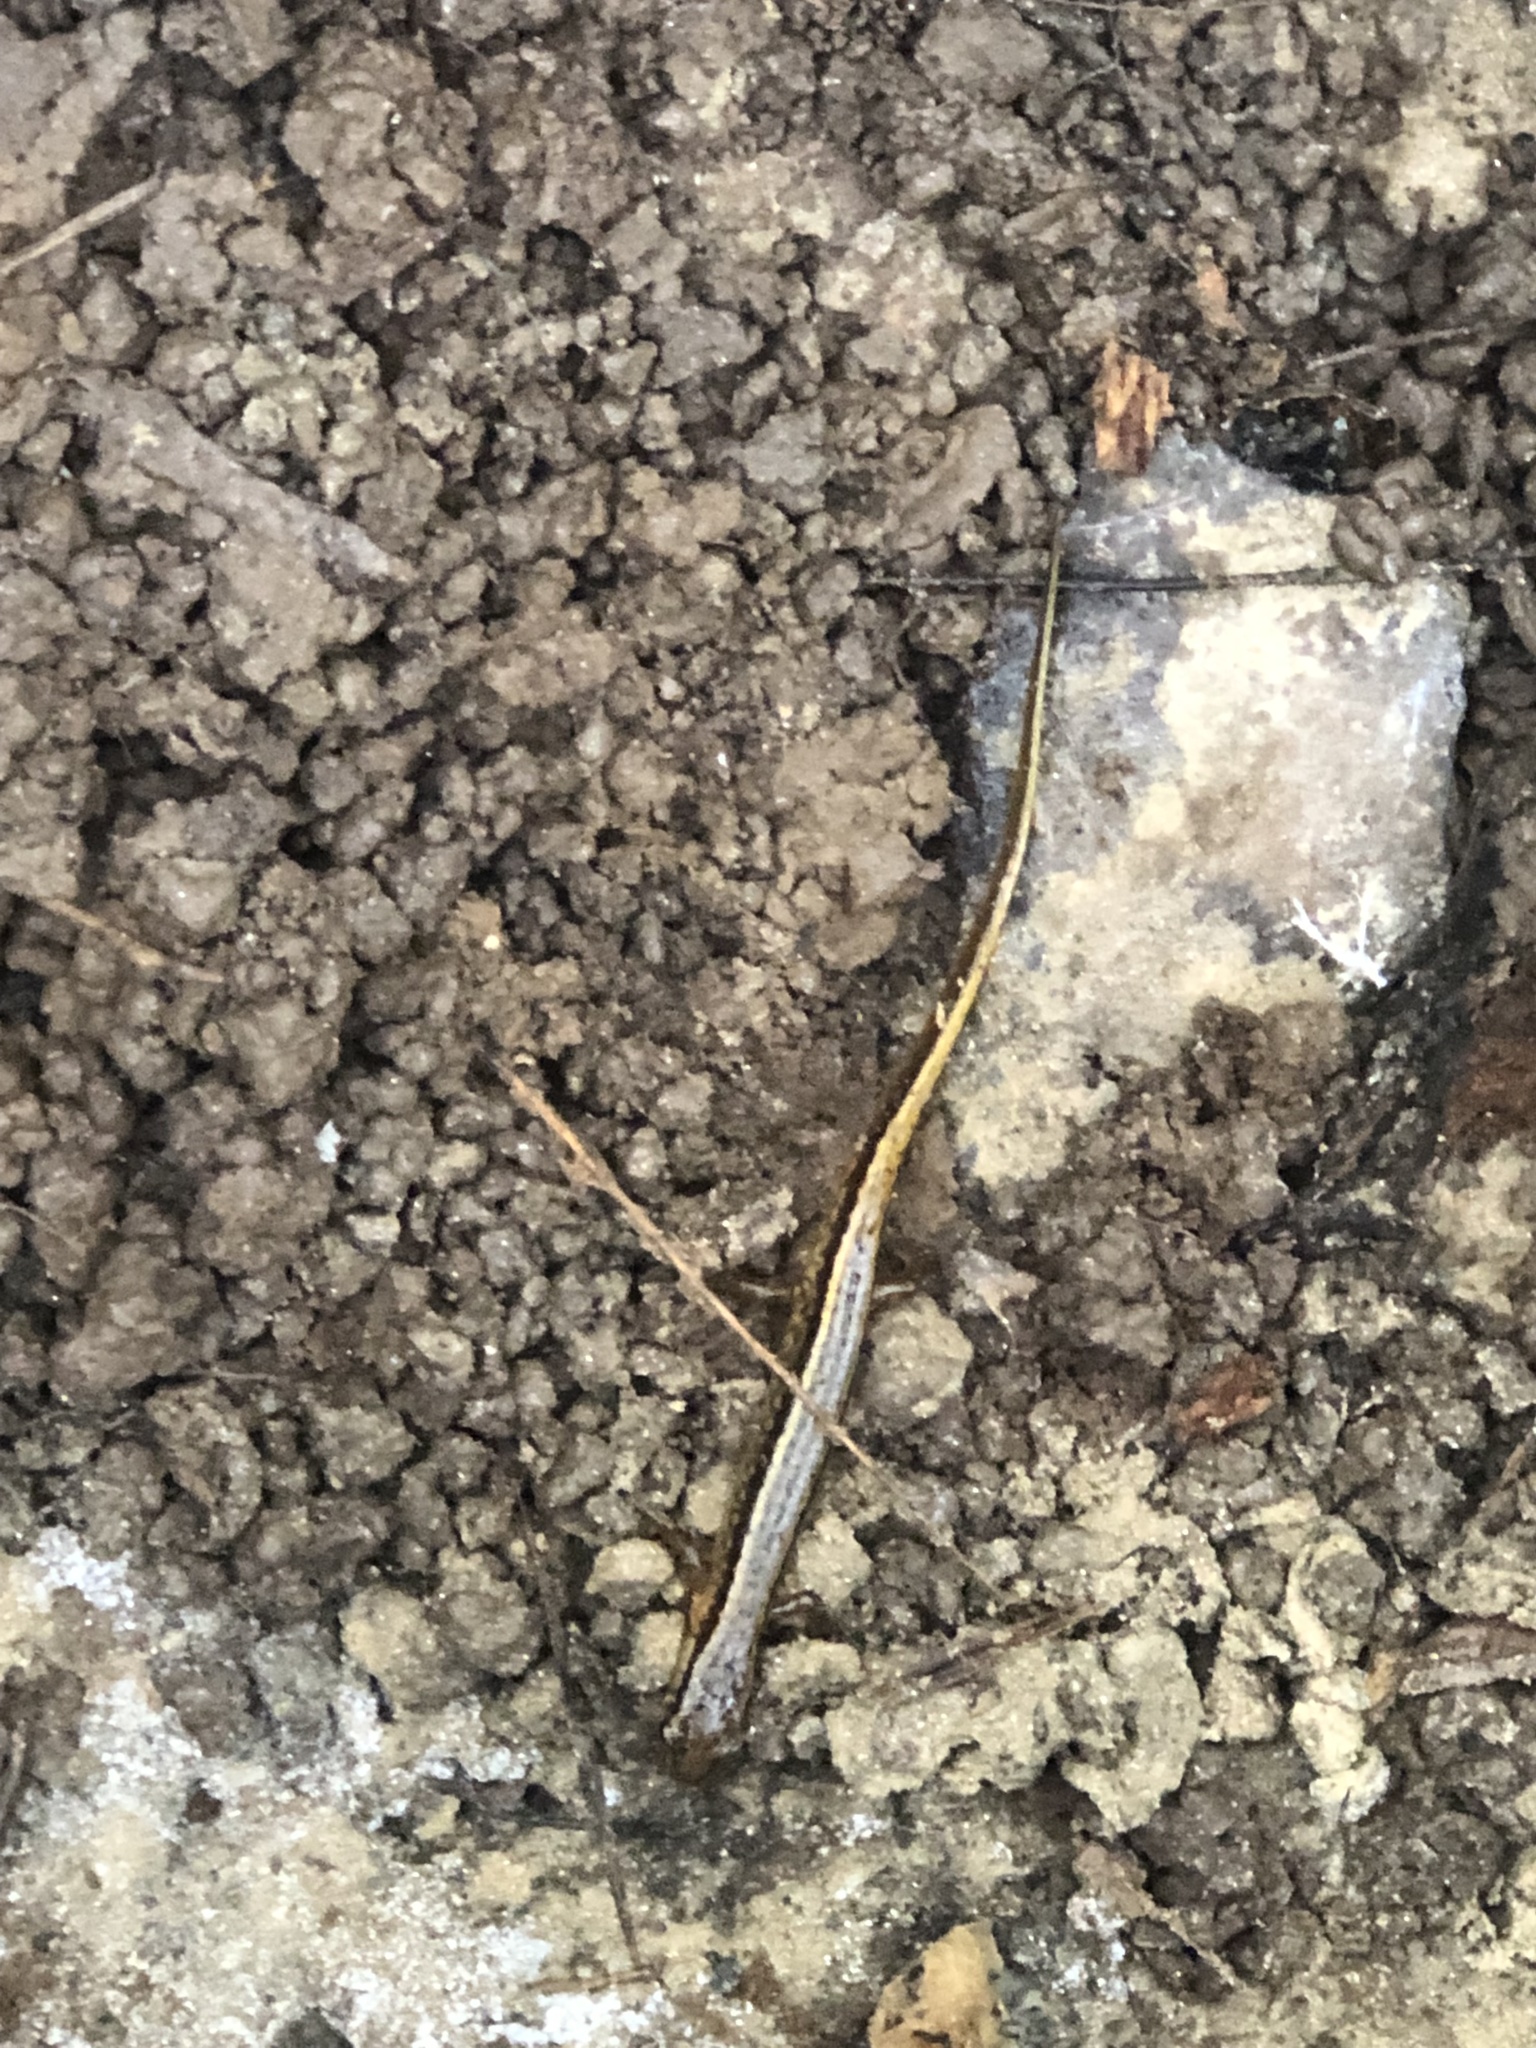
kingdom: Animalia
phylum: Chordata
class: Amphibia
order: Caudata
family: Plethodontidae
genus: Eurycea
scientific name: Eurycea cirrigera
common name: Southern two-lined salamander
